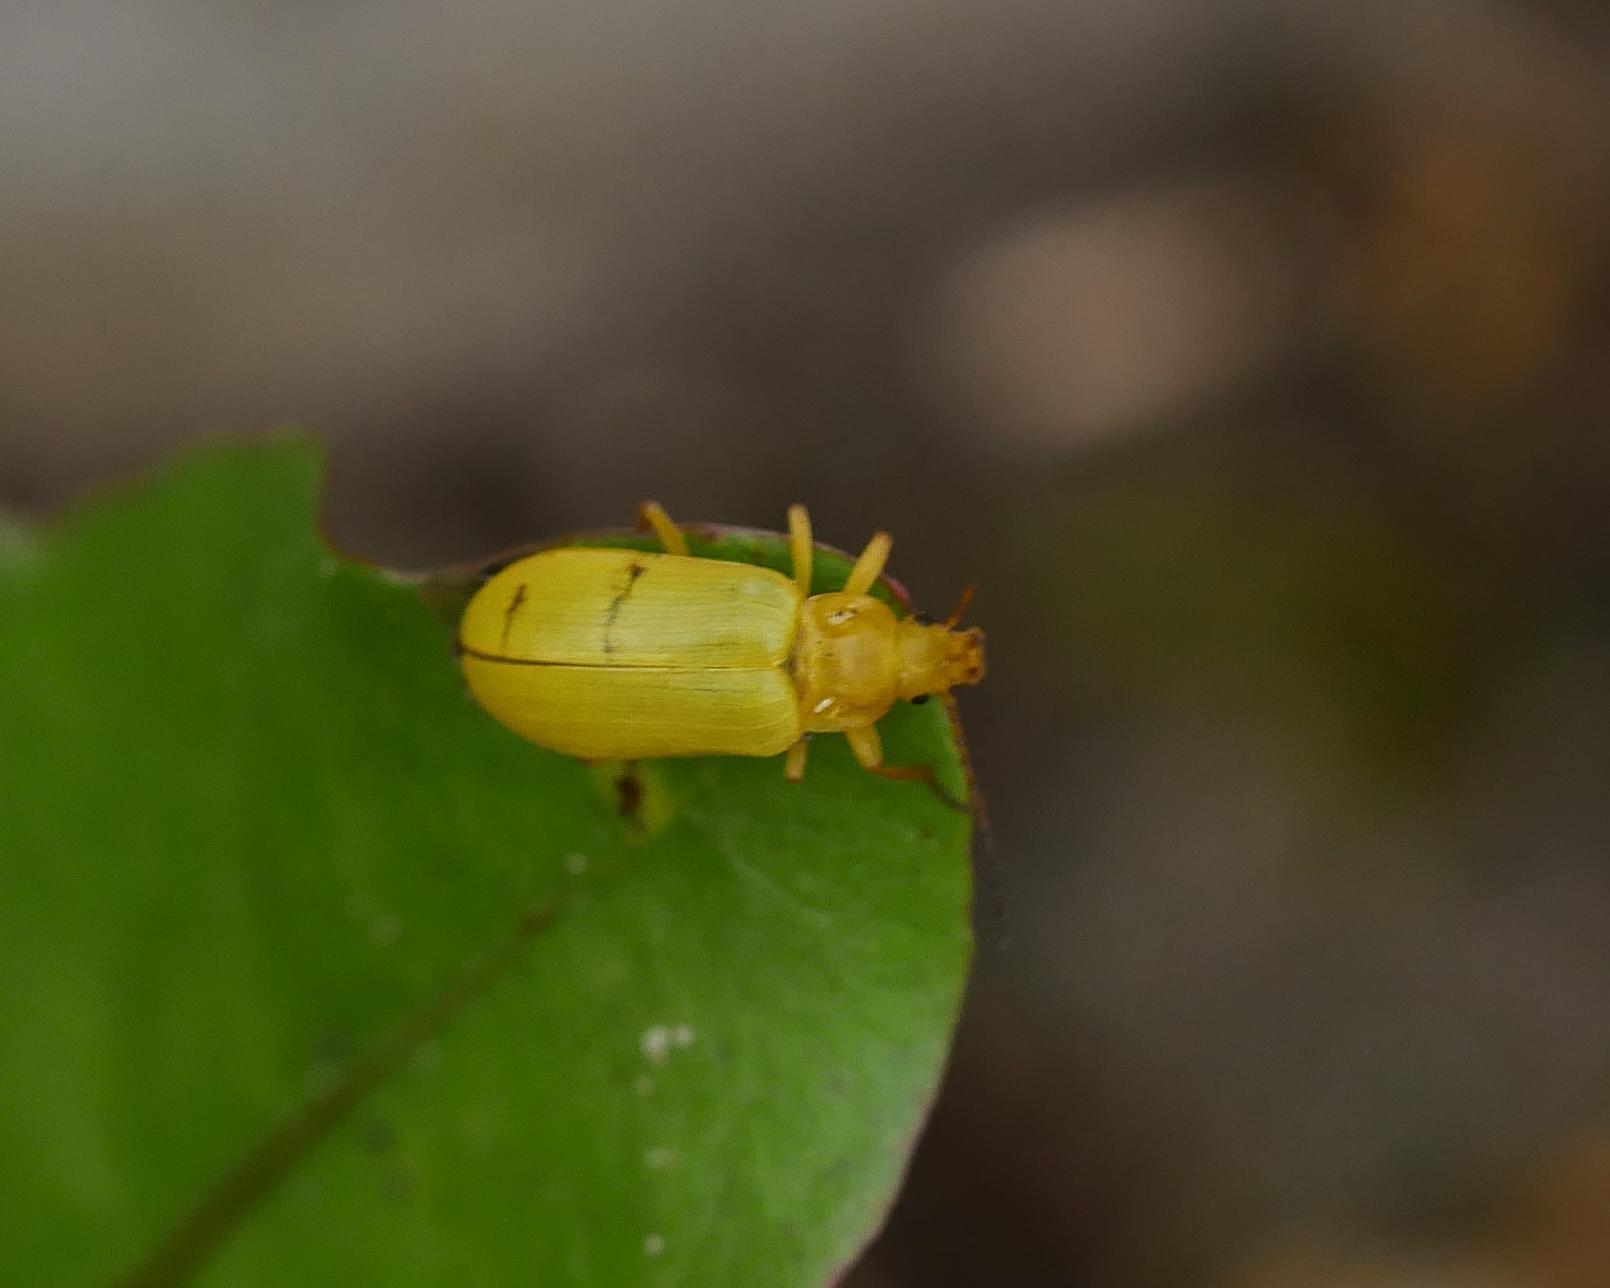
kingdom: Animalia
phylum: Arthropoda
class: Insecta
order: Coleoptera
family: Tenebrionidae
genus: Cteniopus
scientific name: Cteniopus sulphureus
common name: Sulphur beetle
